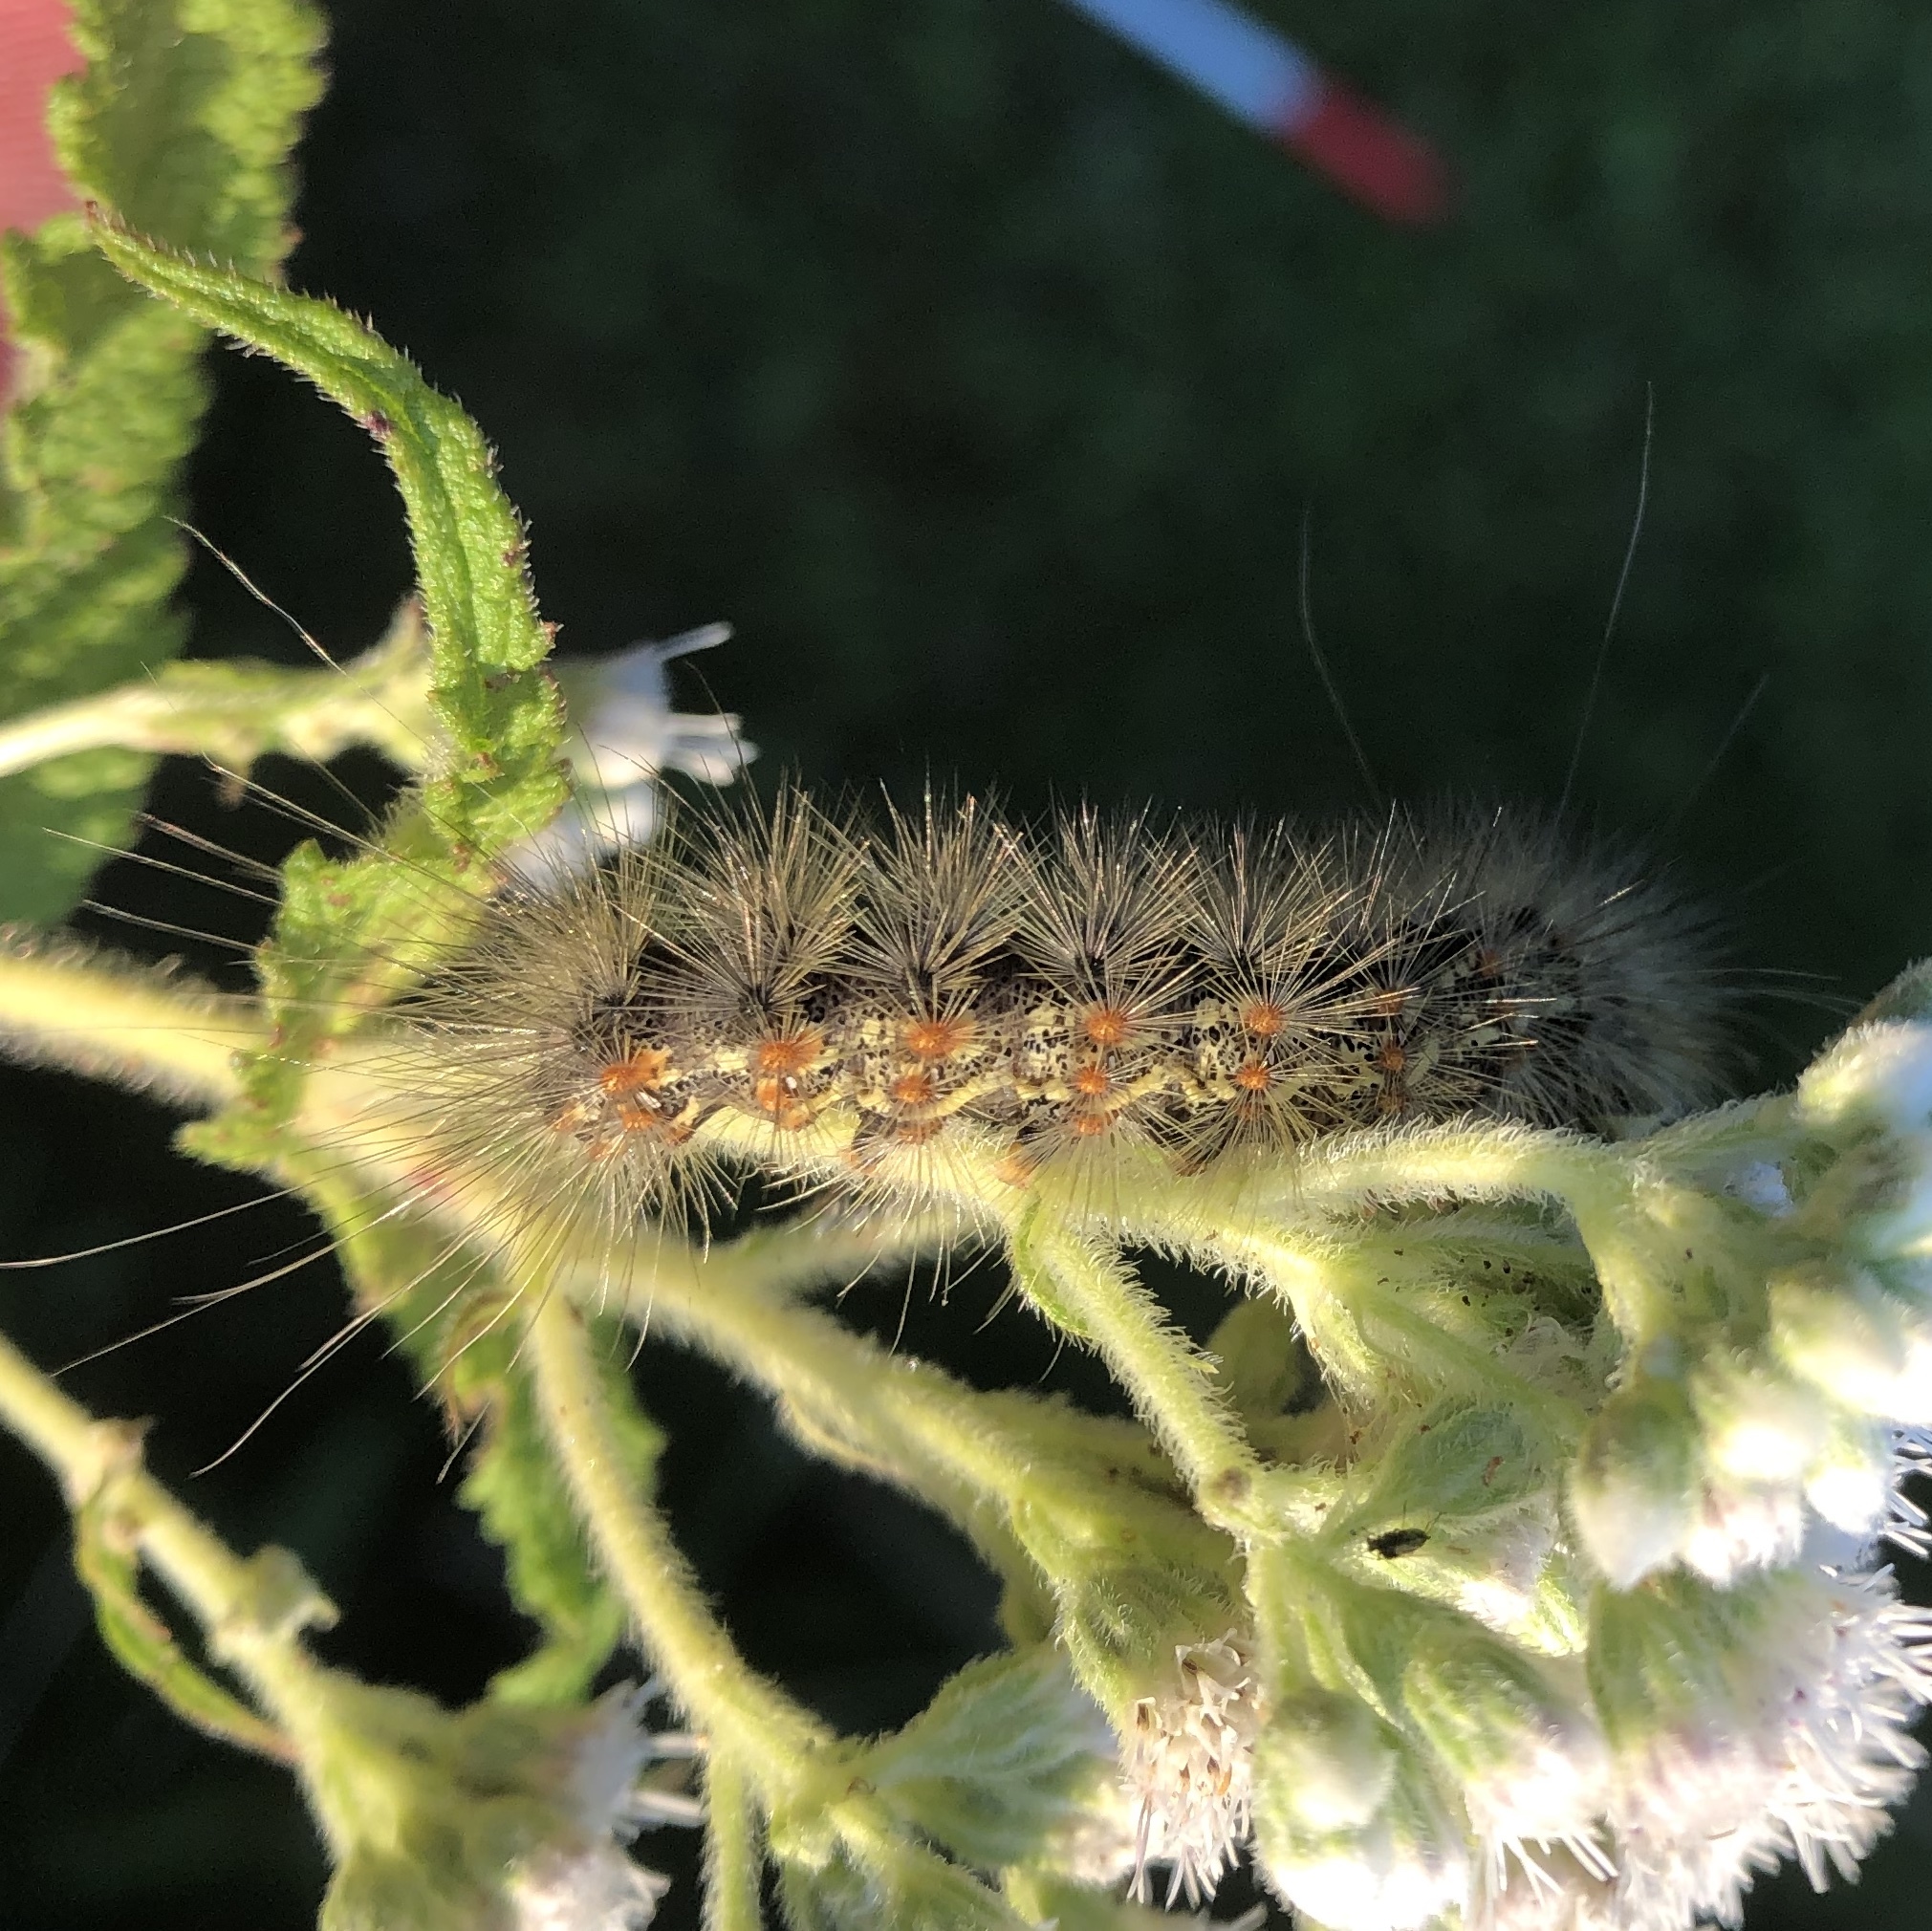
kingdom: Animalia
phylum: Arthropoda
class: Insecta
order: Lepidoptera
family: Erebidae
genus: Estigmene
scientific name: Estigmene acrea
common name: Salt marsh moth
